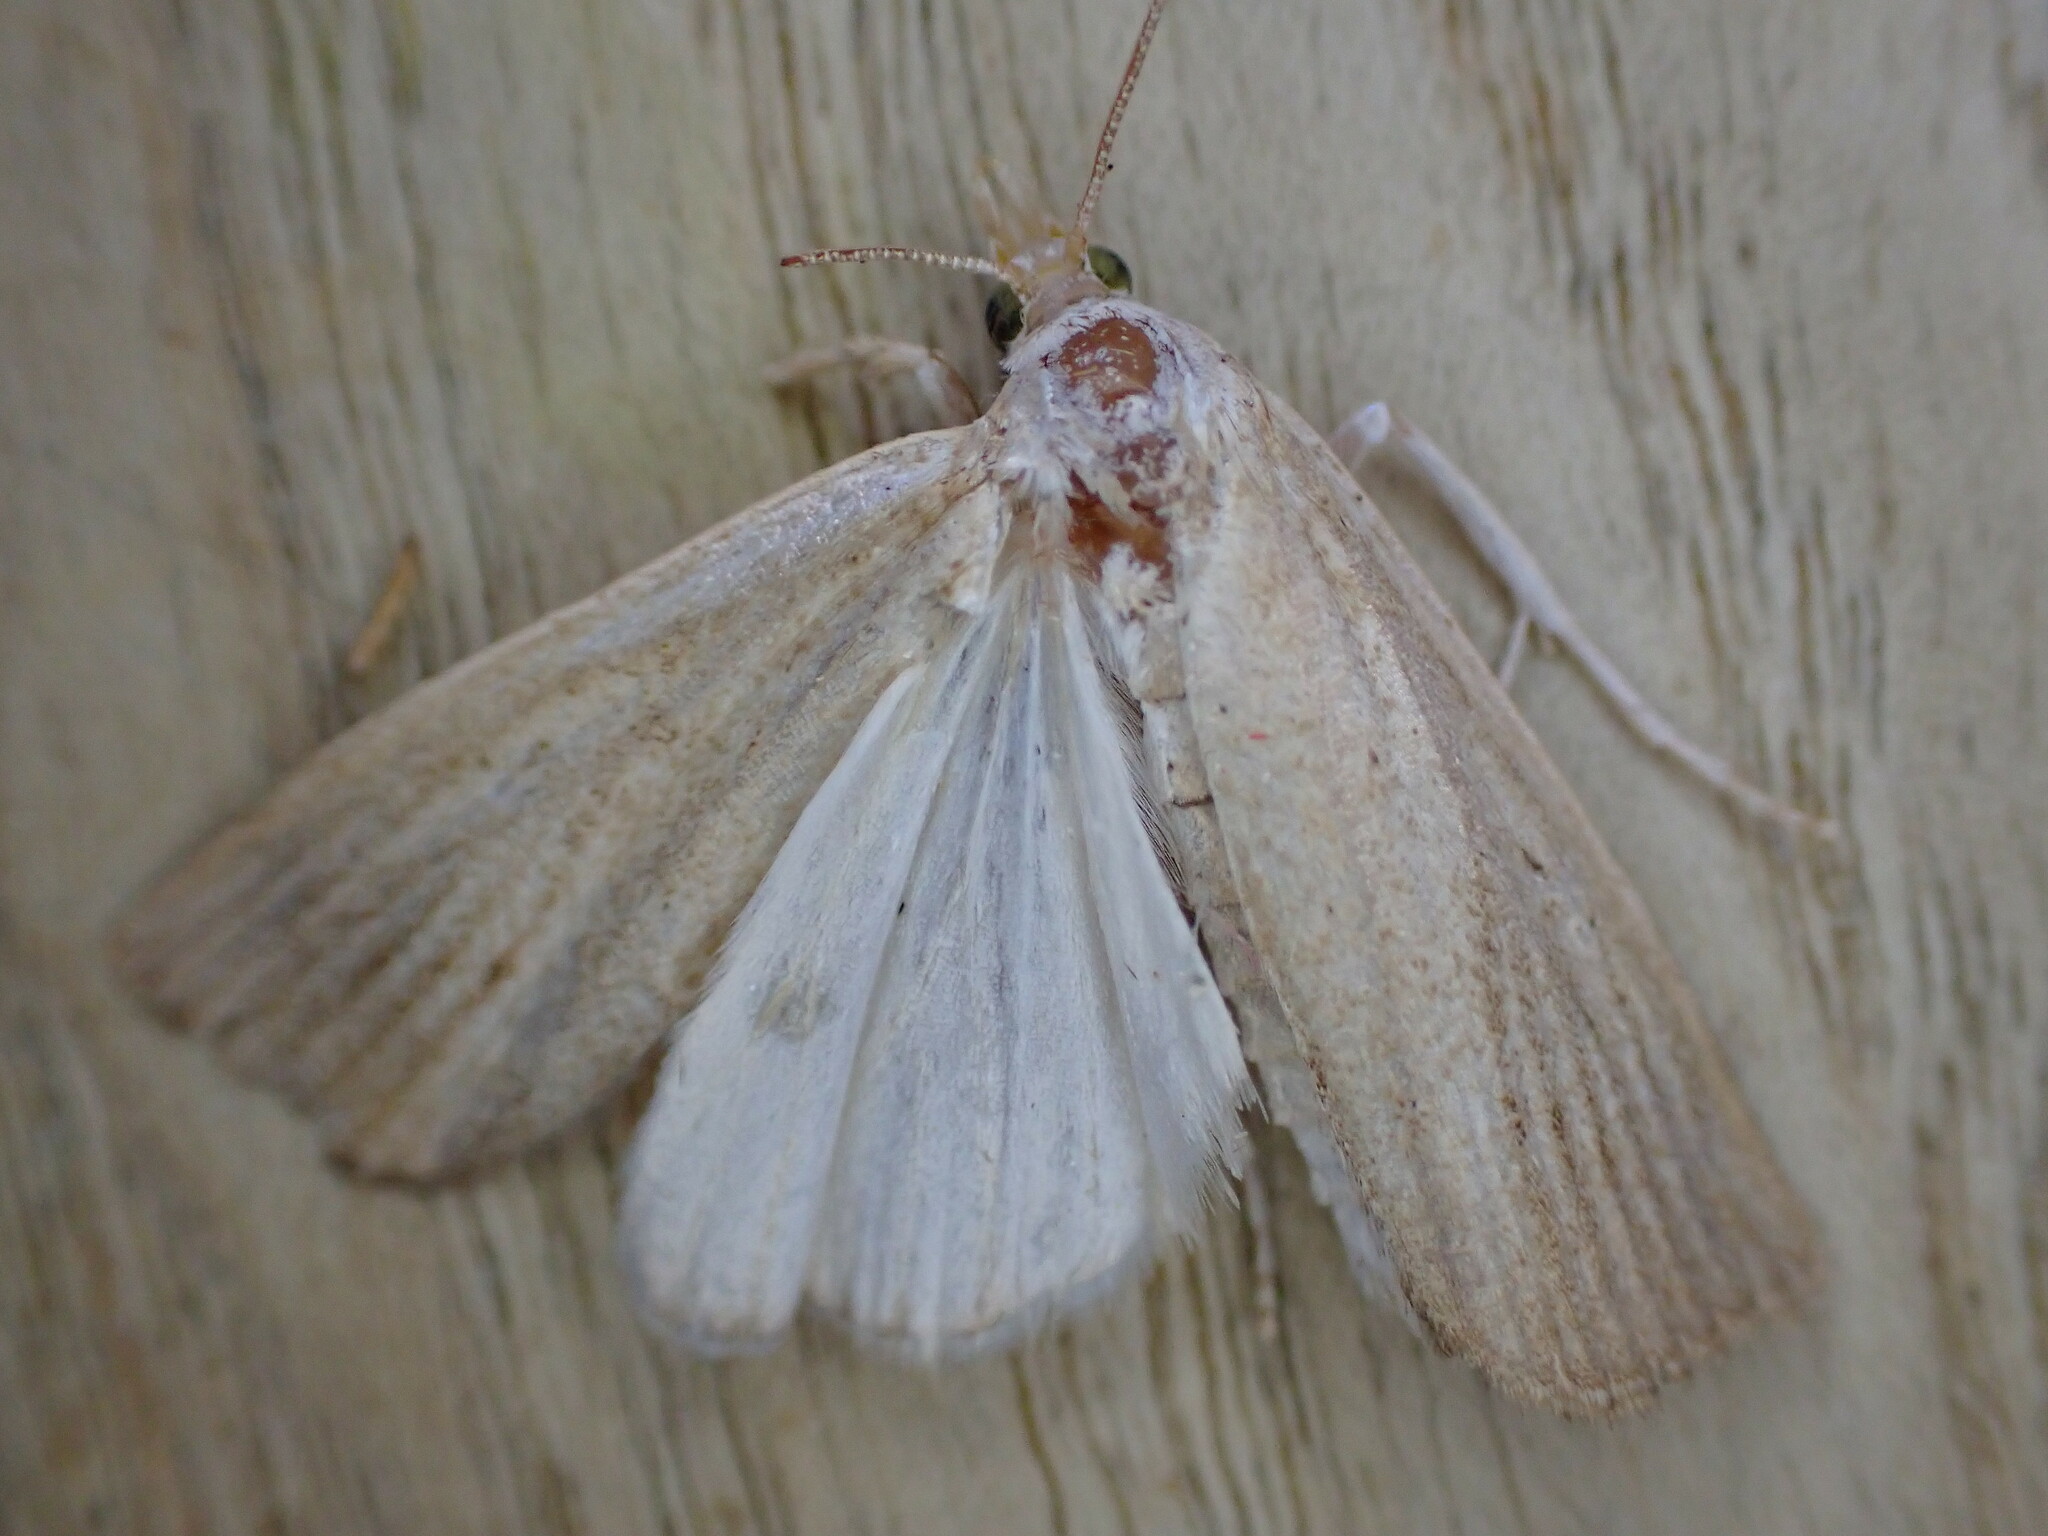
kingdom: Animalia
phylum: Arthropoda
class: Insecta
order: Lepidoptera
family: Crambidae
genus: Calamotropha
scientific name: Calamotropha paludella
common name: Bulrush veneer
